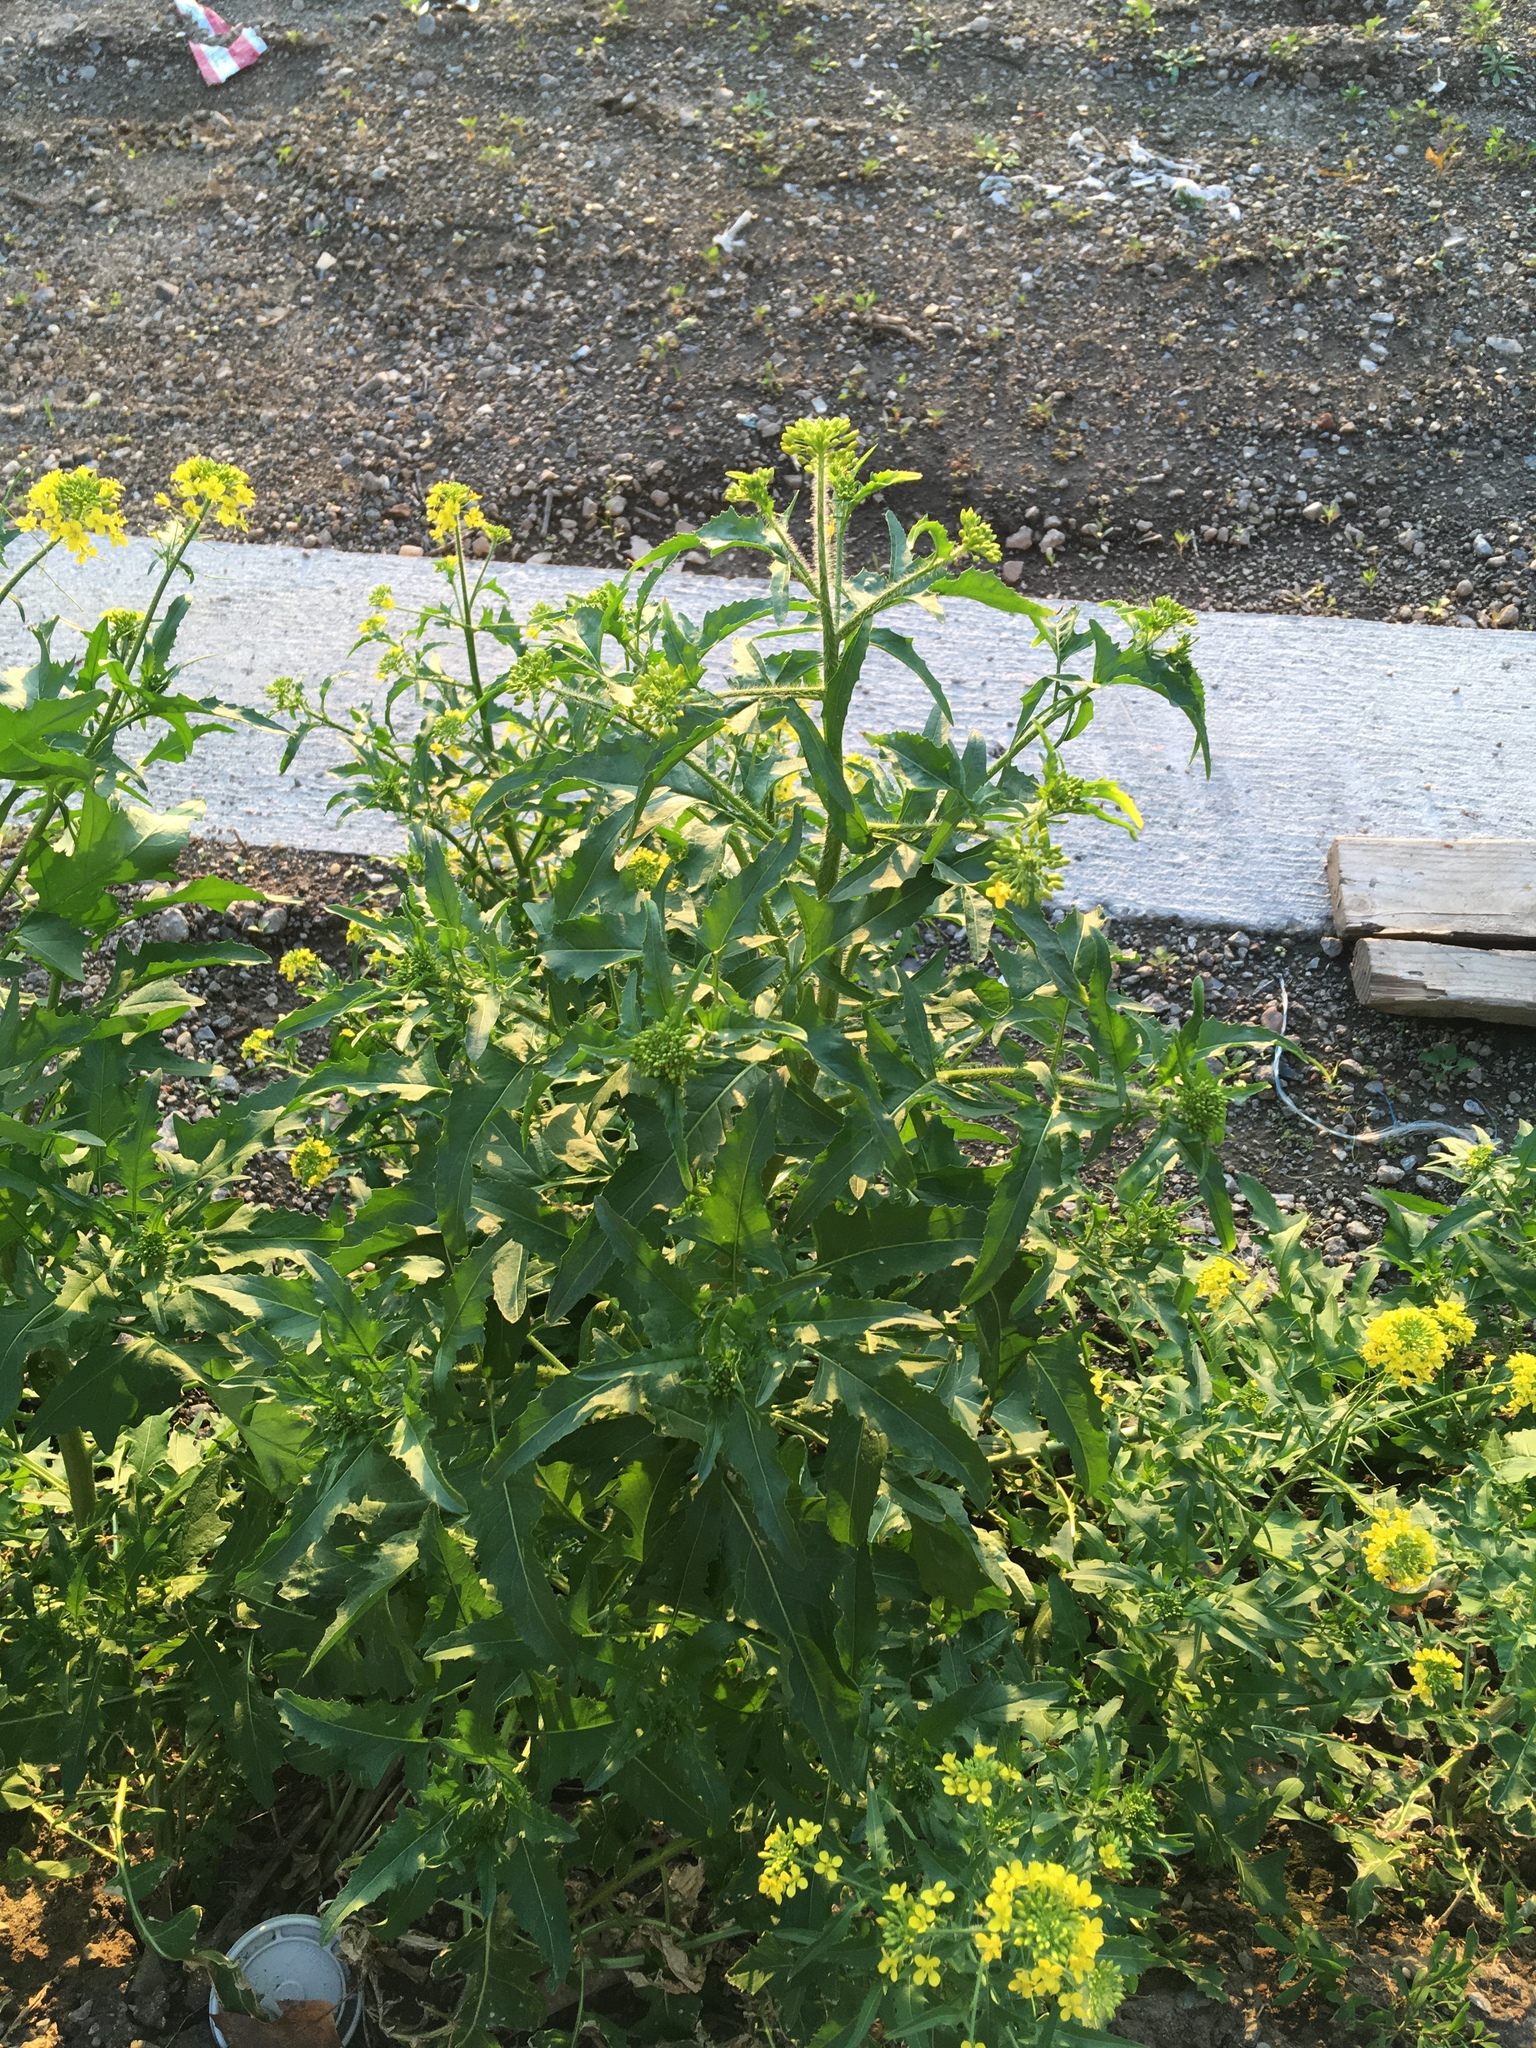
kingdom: Plantae
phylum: Tracheophyta
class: Magnoliopsida
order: Brassicales
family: Brassicaceae
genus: Sisymbrium
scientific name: Sisymbrium loeselii
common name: False london-rocket
